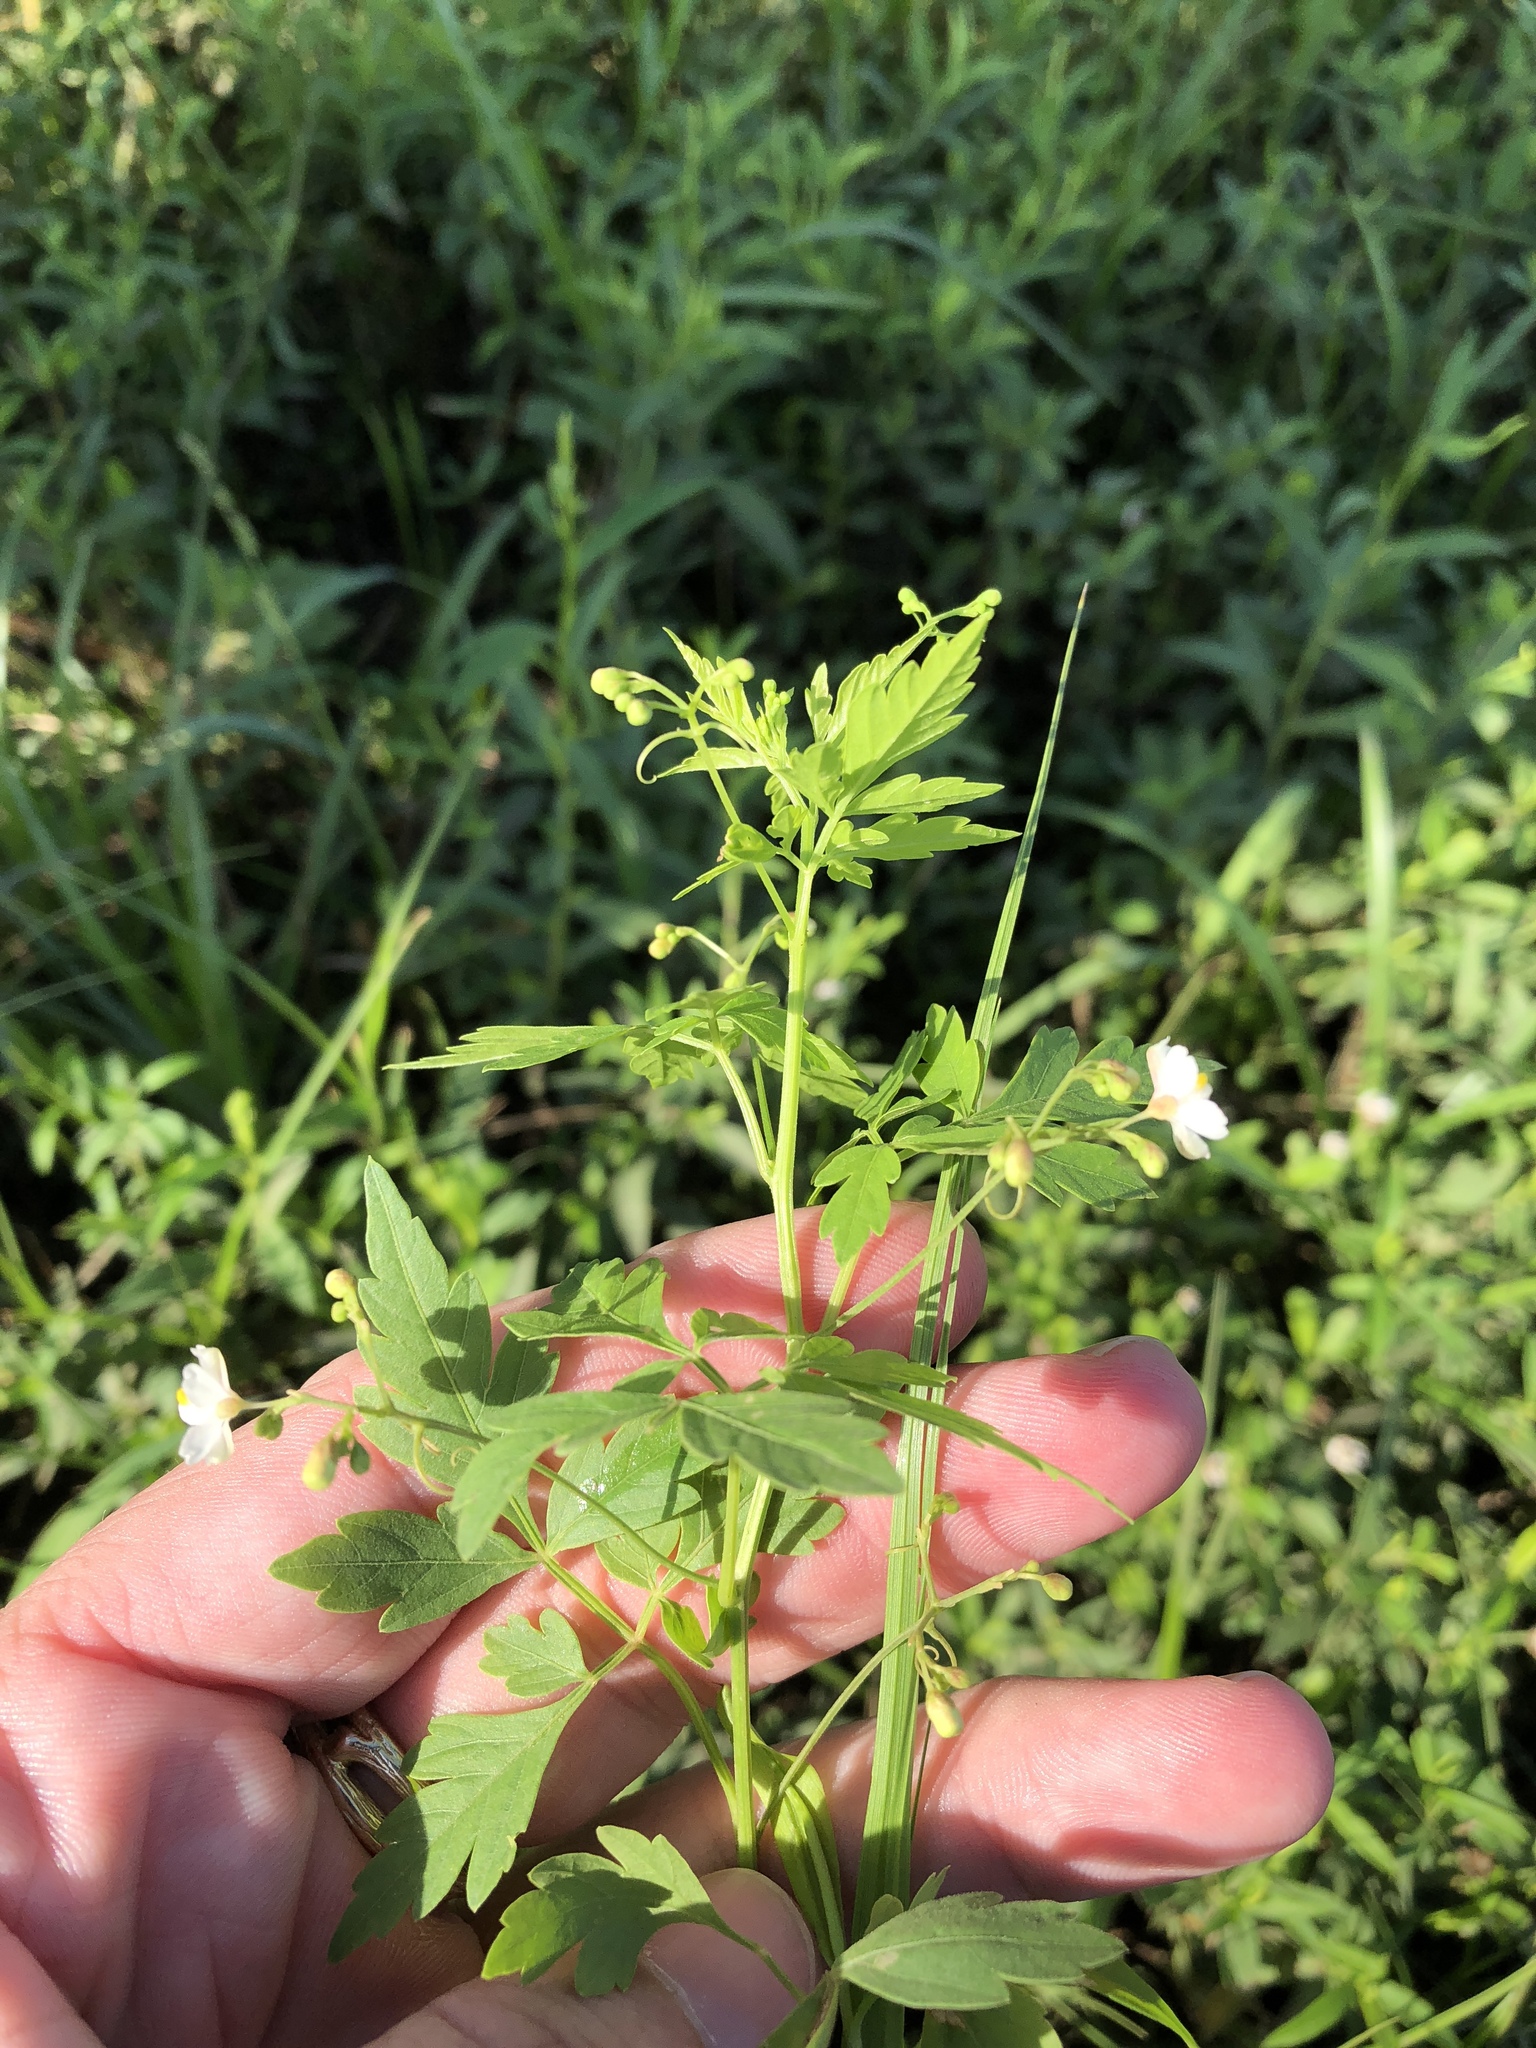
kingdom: Plantae
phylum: Tracheophyta
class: Magnoliopsida
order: Sapindales
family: Sapindaceae
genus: Cardiospermum
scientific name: Cardiospermum halicacabum
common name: Balloon vine
